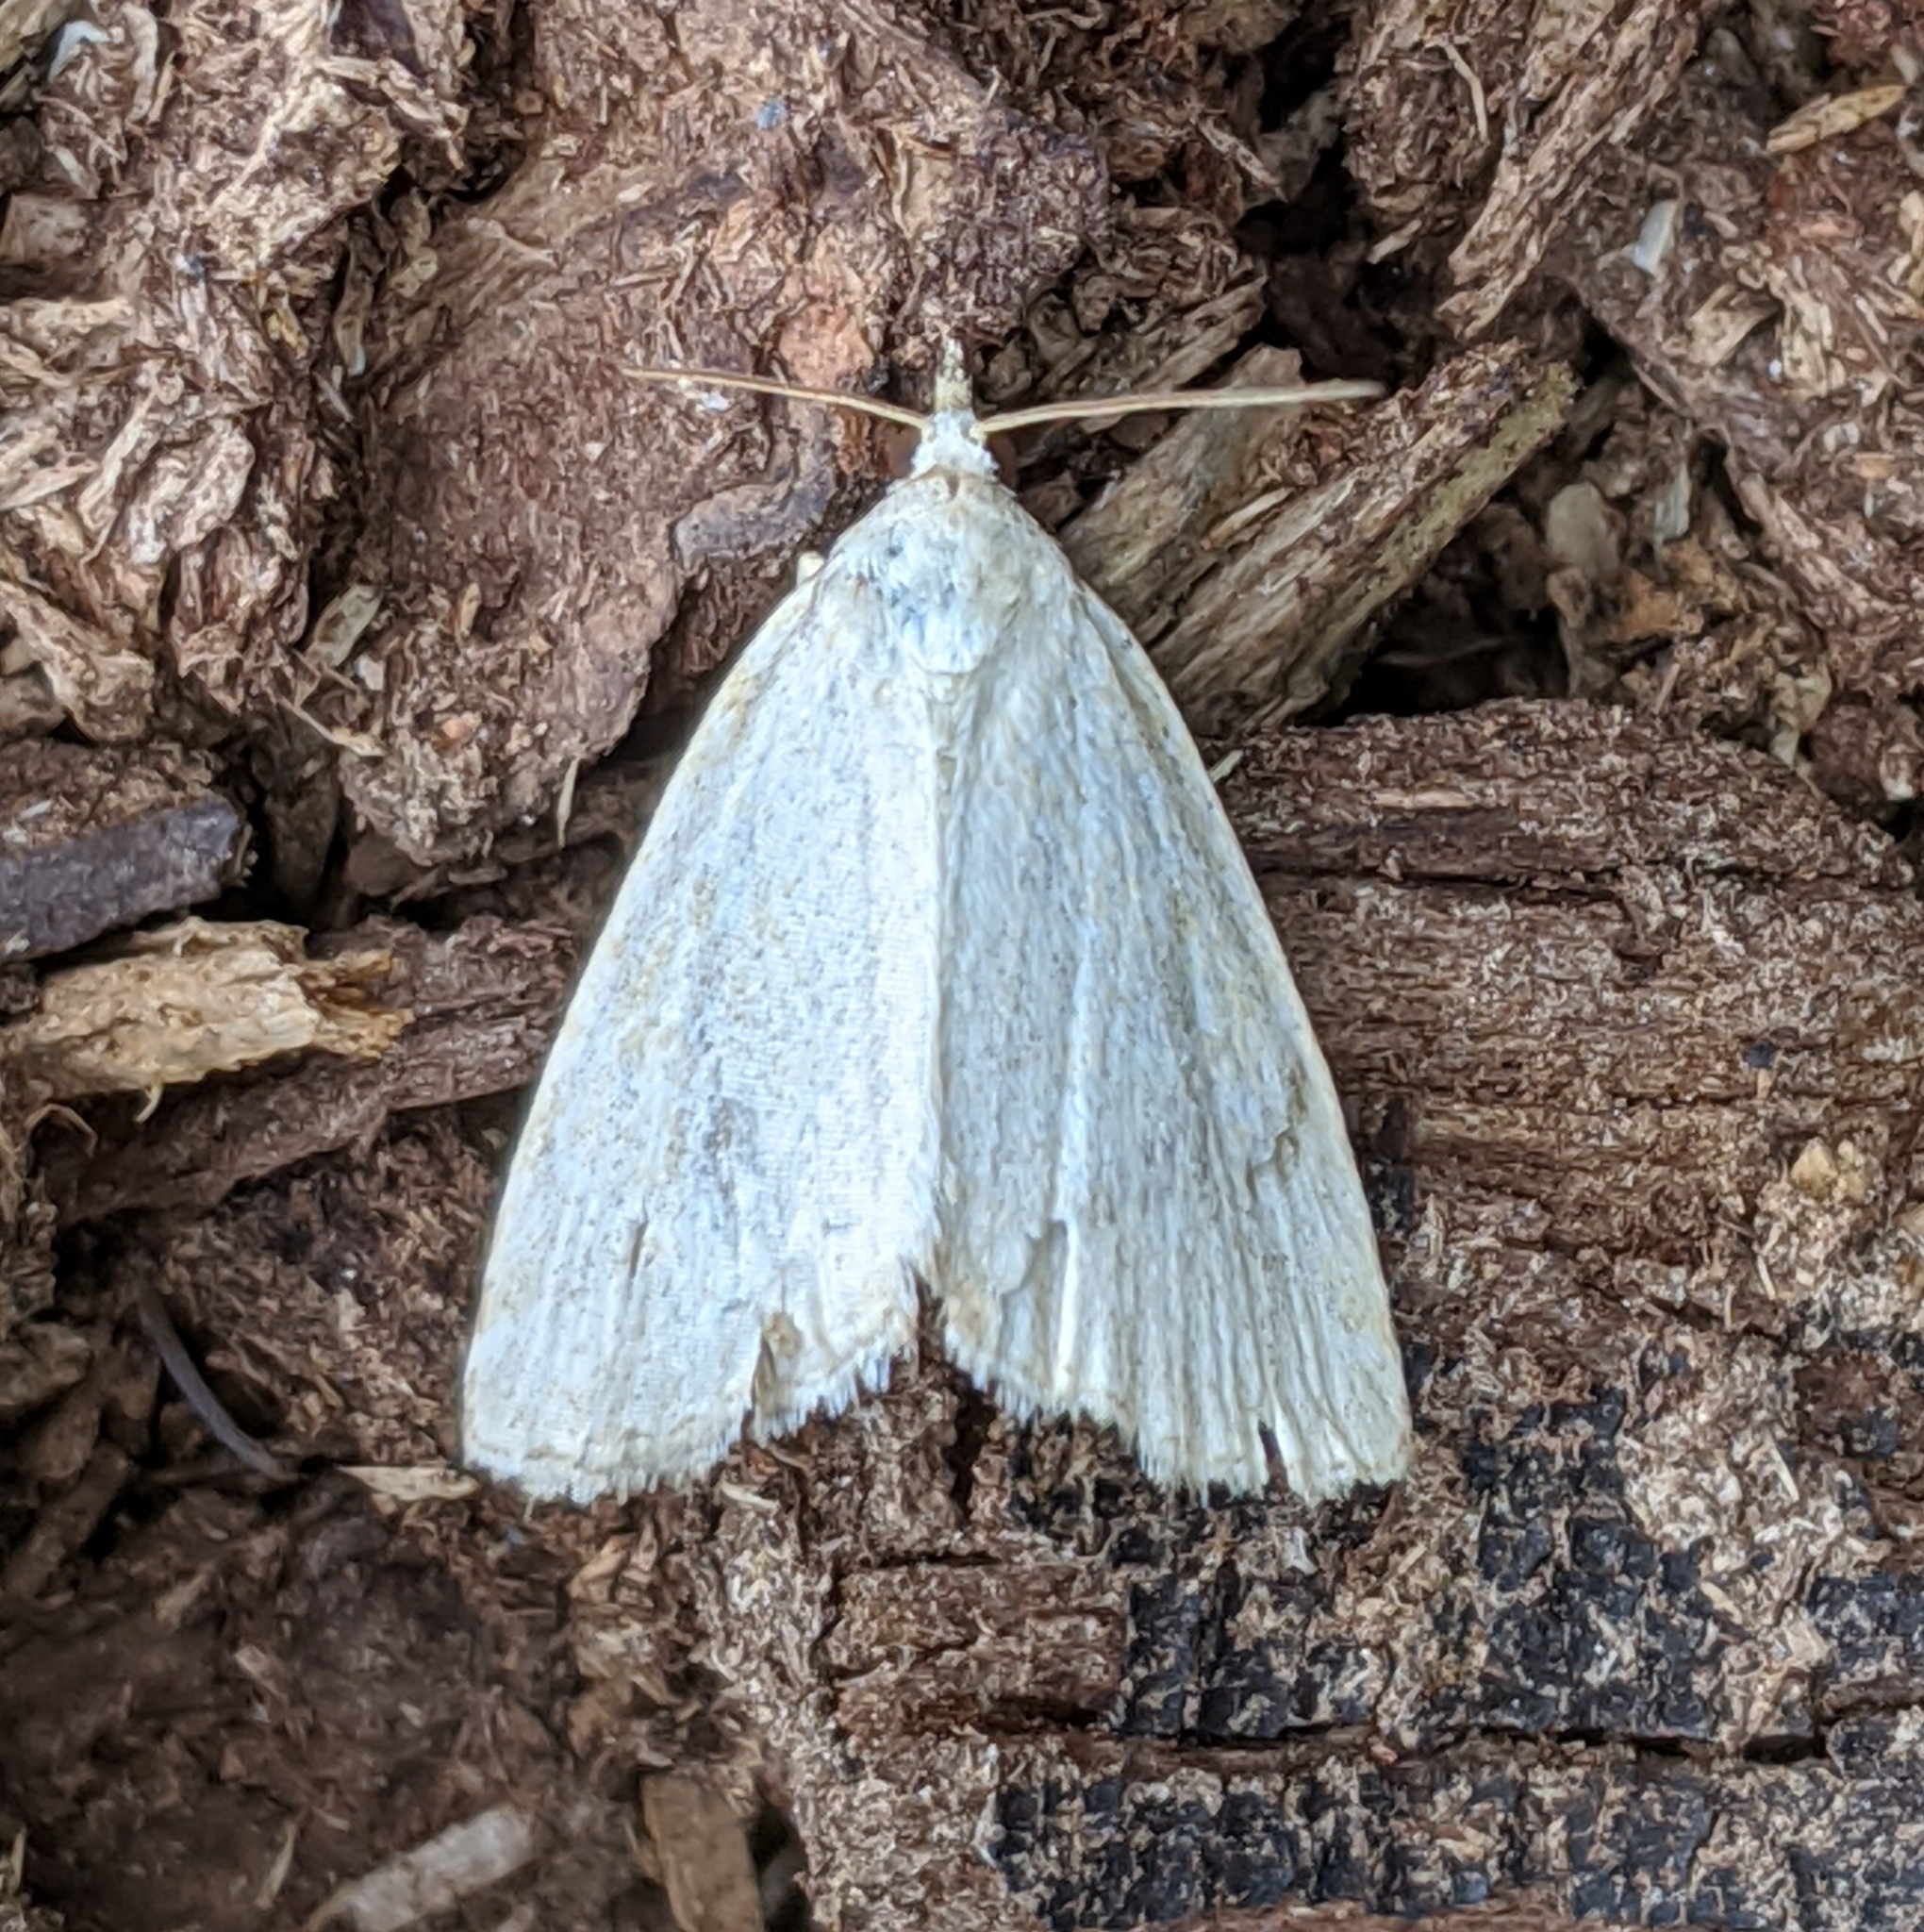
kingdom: Animalia
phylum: Arthropoda
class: Insecta
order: Lepidoptera
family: Noctuidae
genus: Protodeltote
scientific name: Protodeltote albidula
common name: Pale glyph
